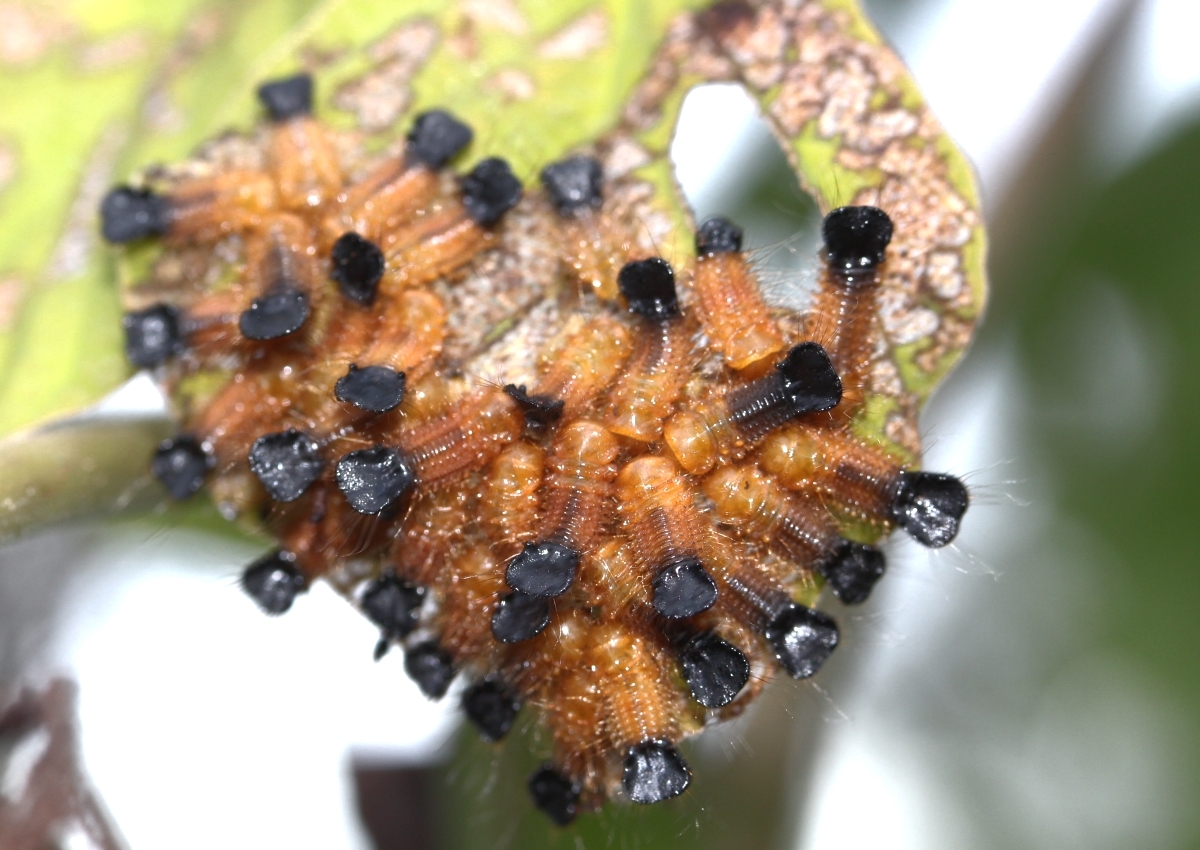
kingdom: Animalia
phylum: Arthropoda
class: Insecta
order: Coleoptera
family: Chrysomelidae
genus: Coelomera
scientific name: Coelomera
